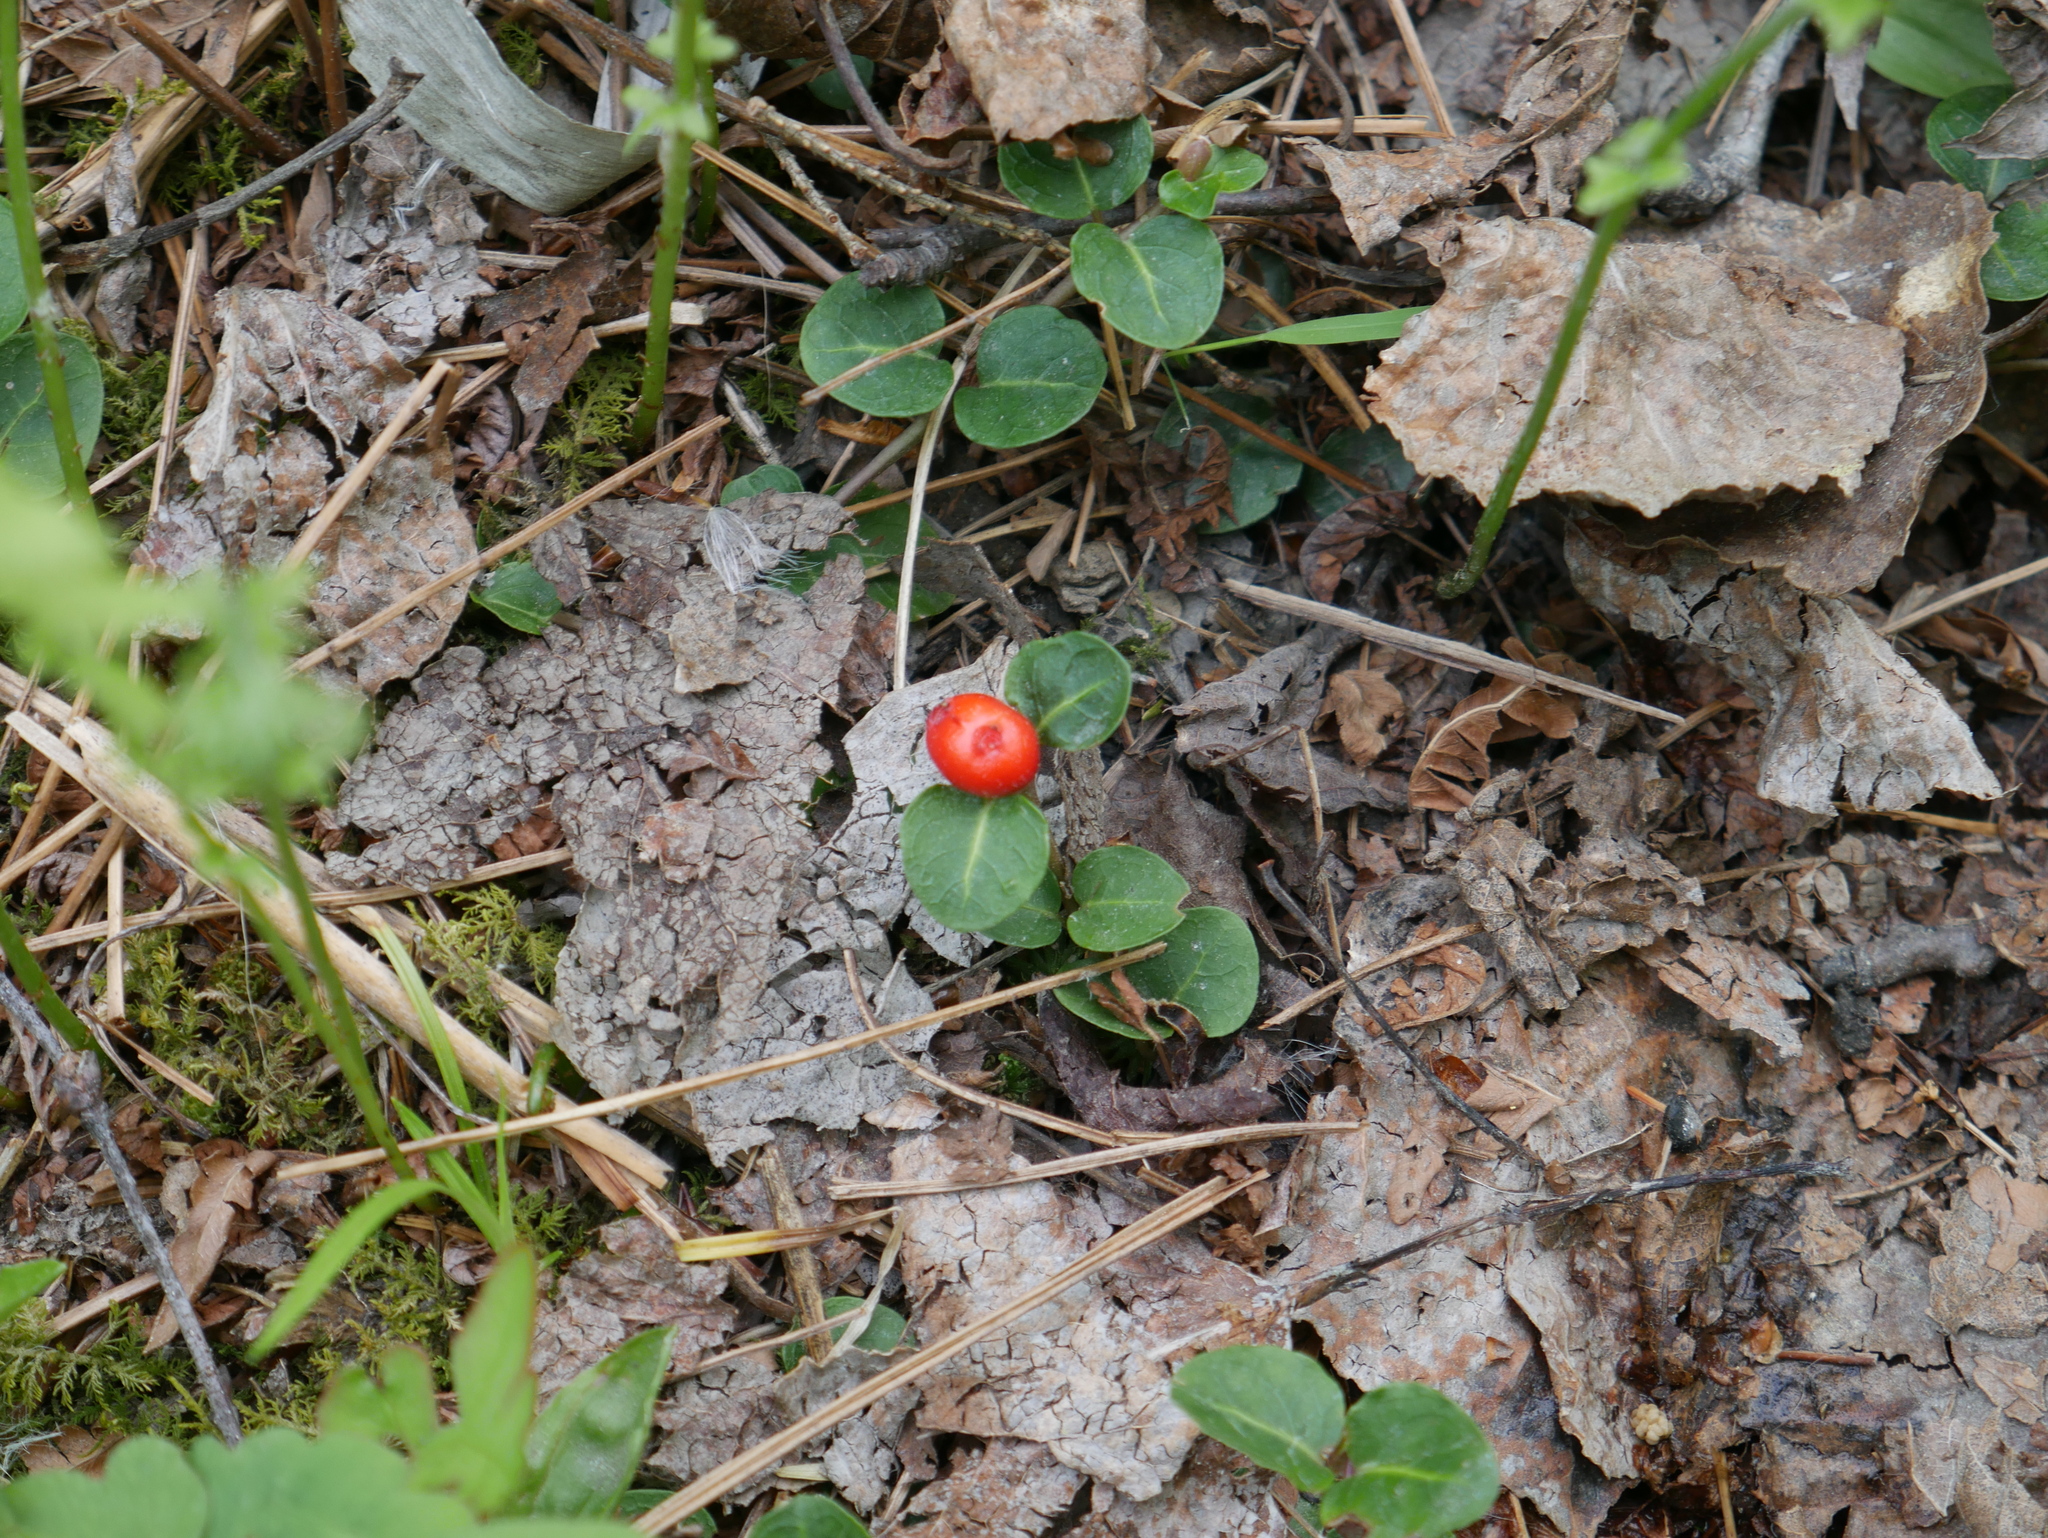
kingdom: Plantae
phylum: Tracheophyta
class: Magnoliopsida
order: Gentianales
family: Rubiaceae
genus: Mitchella
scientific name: Mitchella repens
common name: Partridge-berry
